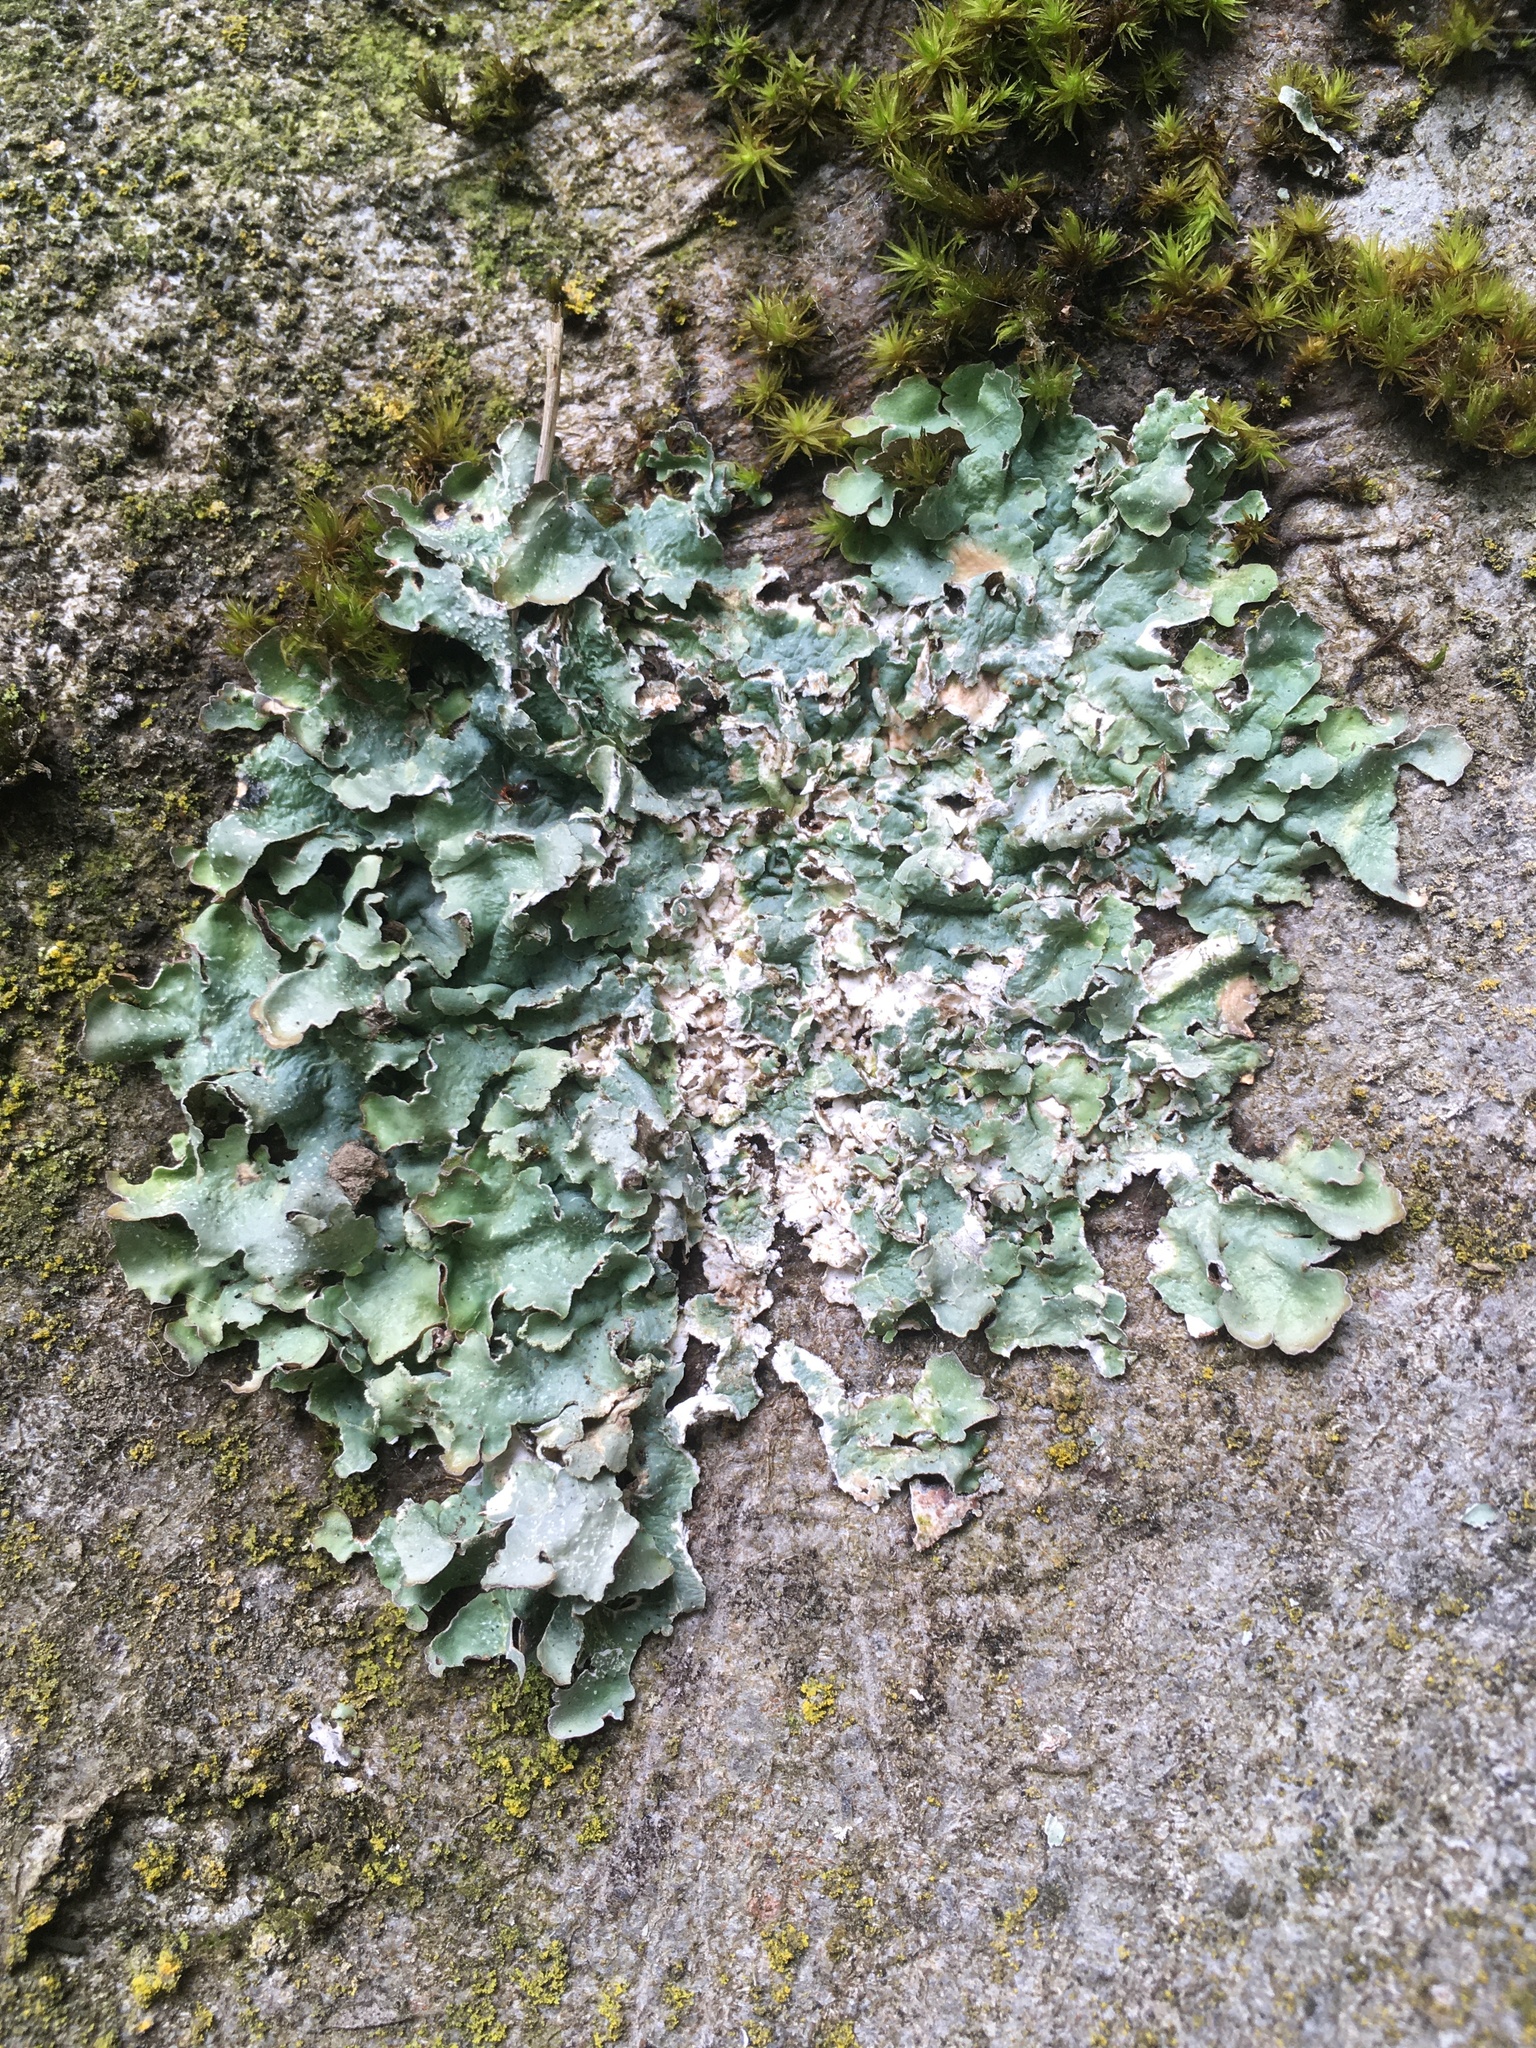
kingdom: Fungi
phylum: Ascomycota
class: Lecanoromycetes
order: Lecanorales
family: Parmeliaceae
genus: Punctelia
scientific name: Punctelia jeckeri
